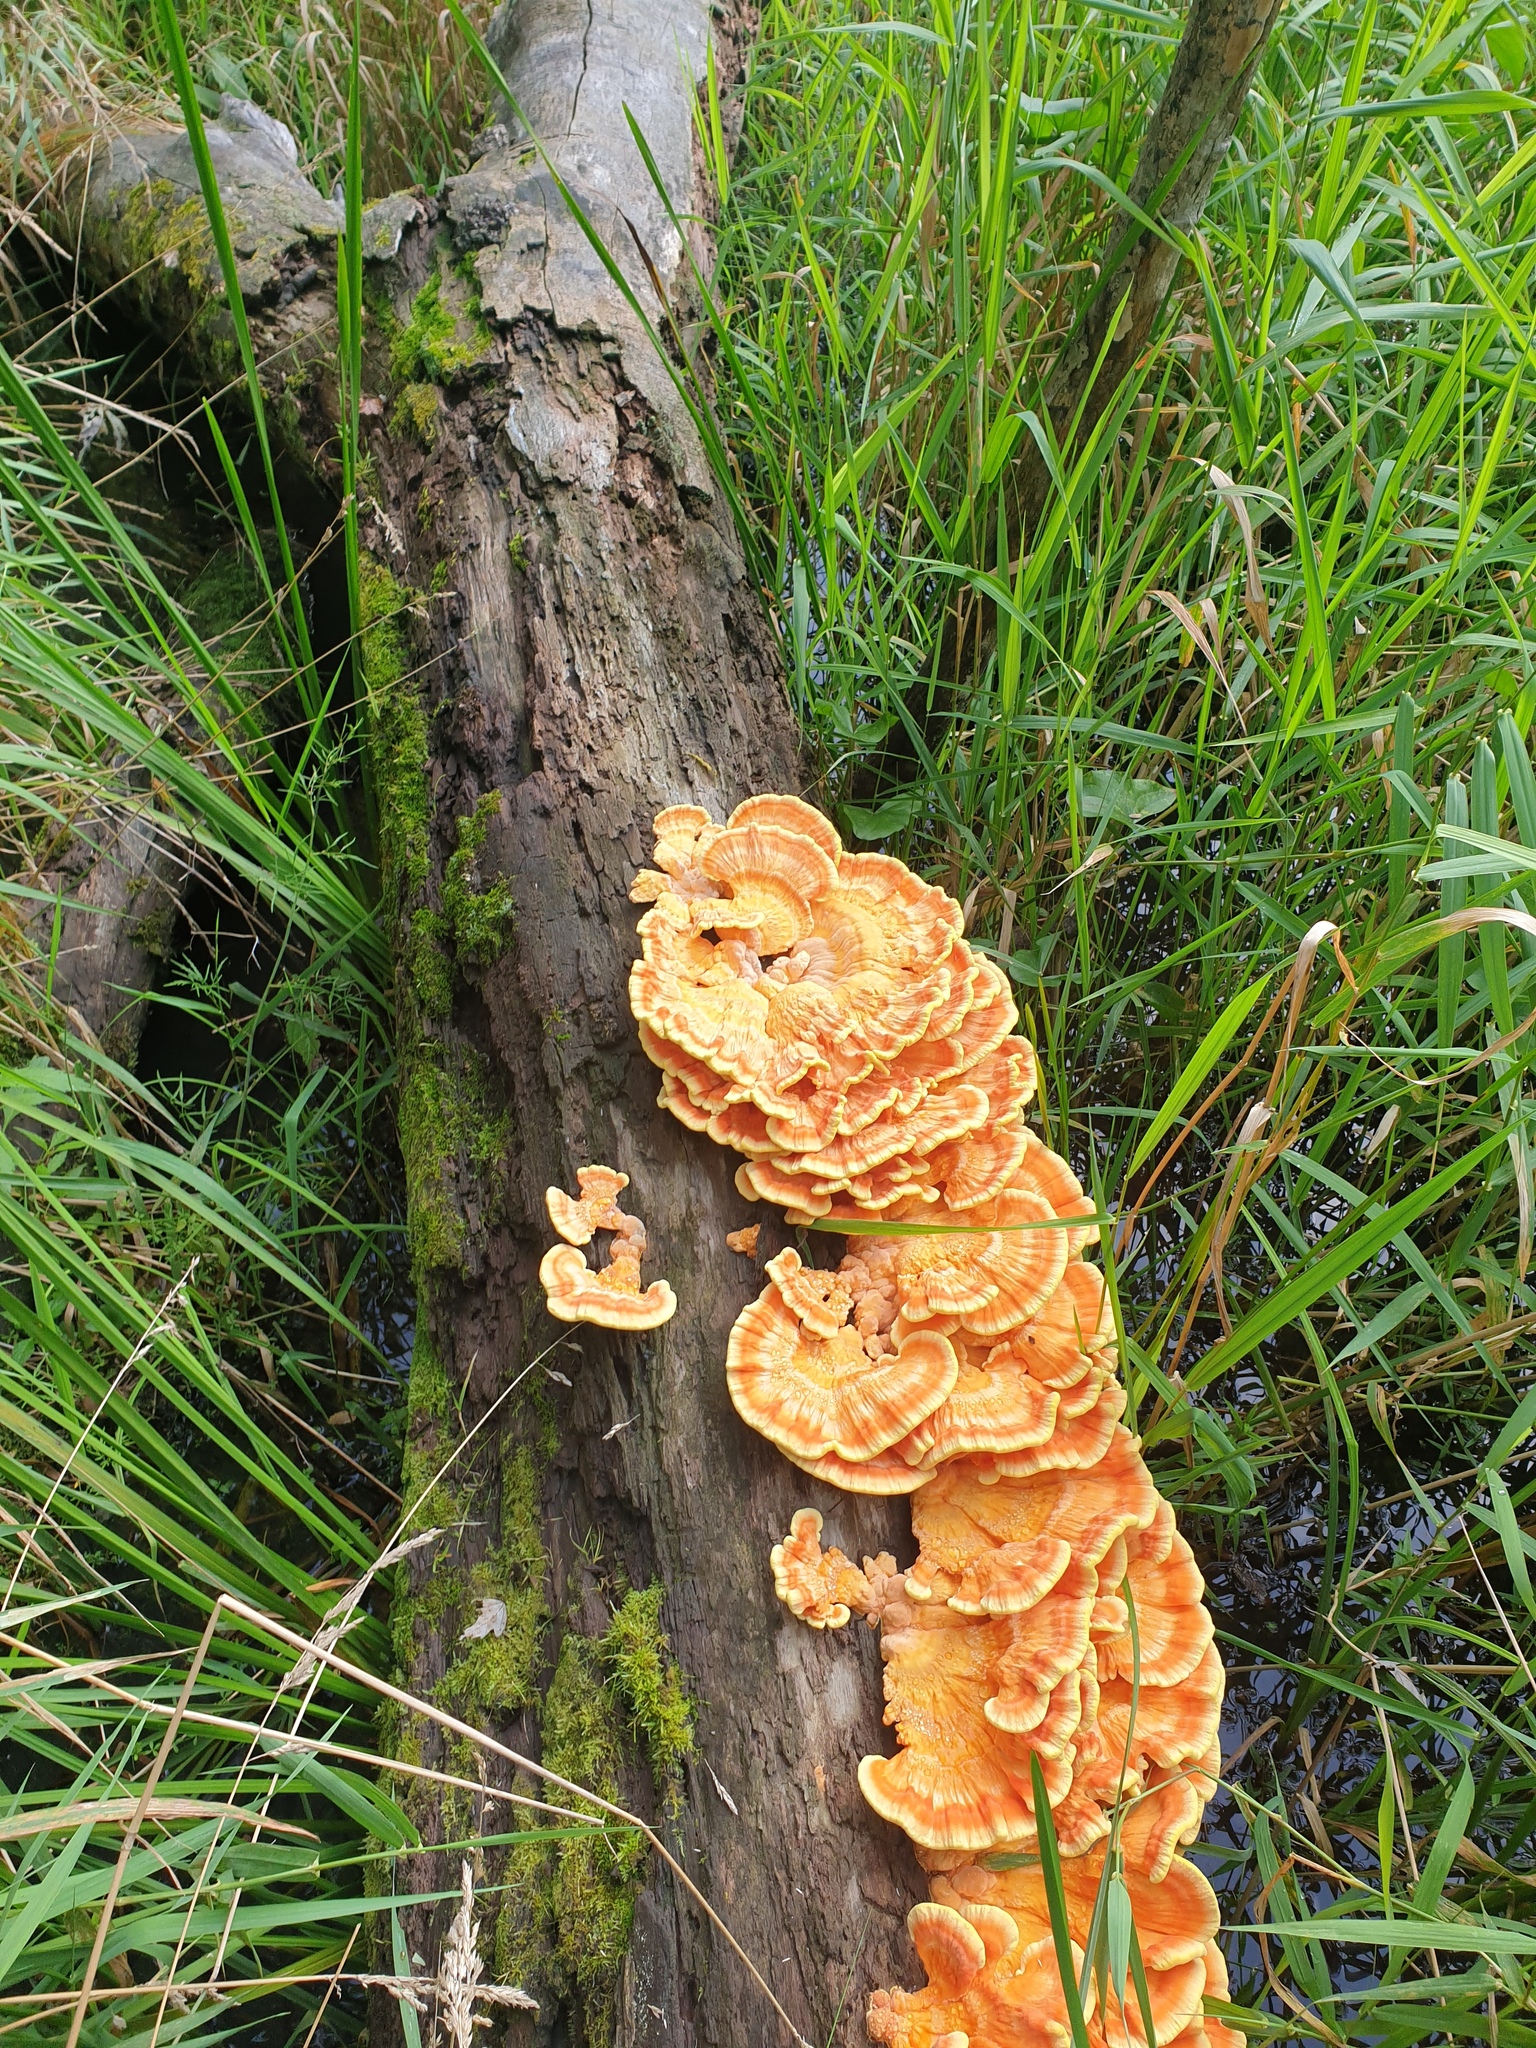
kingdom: Fungi
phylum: Basidiomycota
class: Agaricomycetes
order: Polyporales
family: Laetiporaceae
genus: Laetiporus
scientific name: Laetiporus sulphureus
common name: Chicken of the woods
